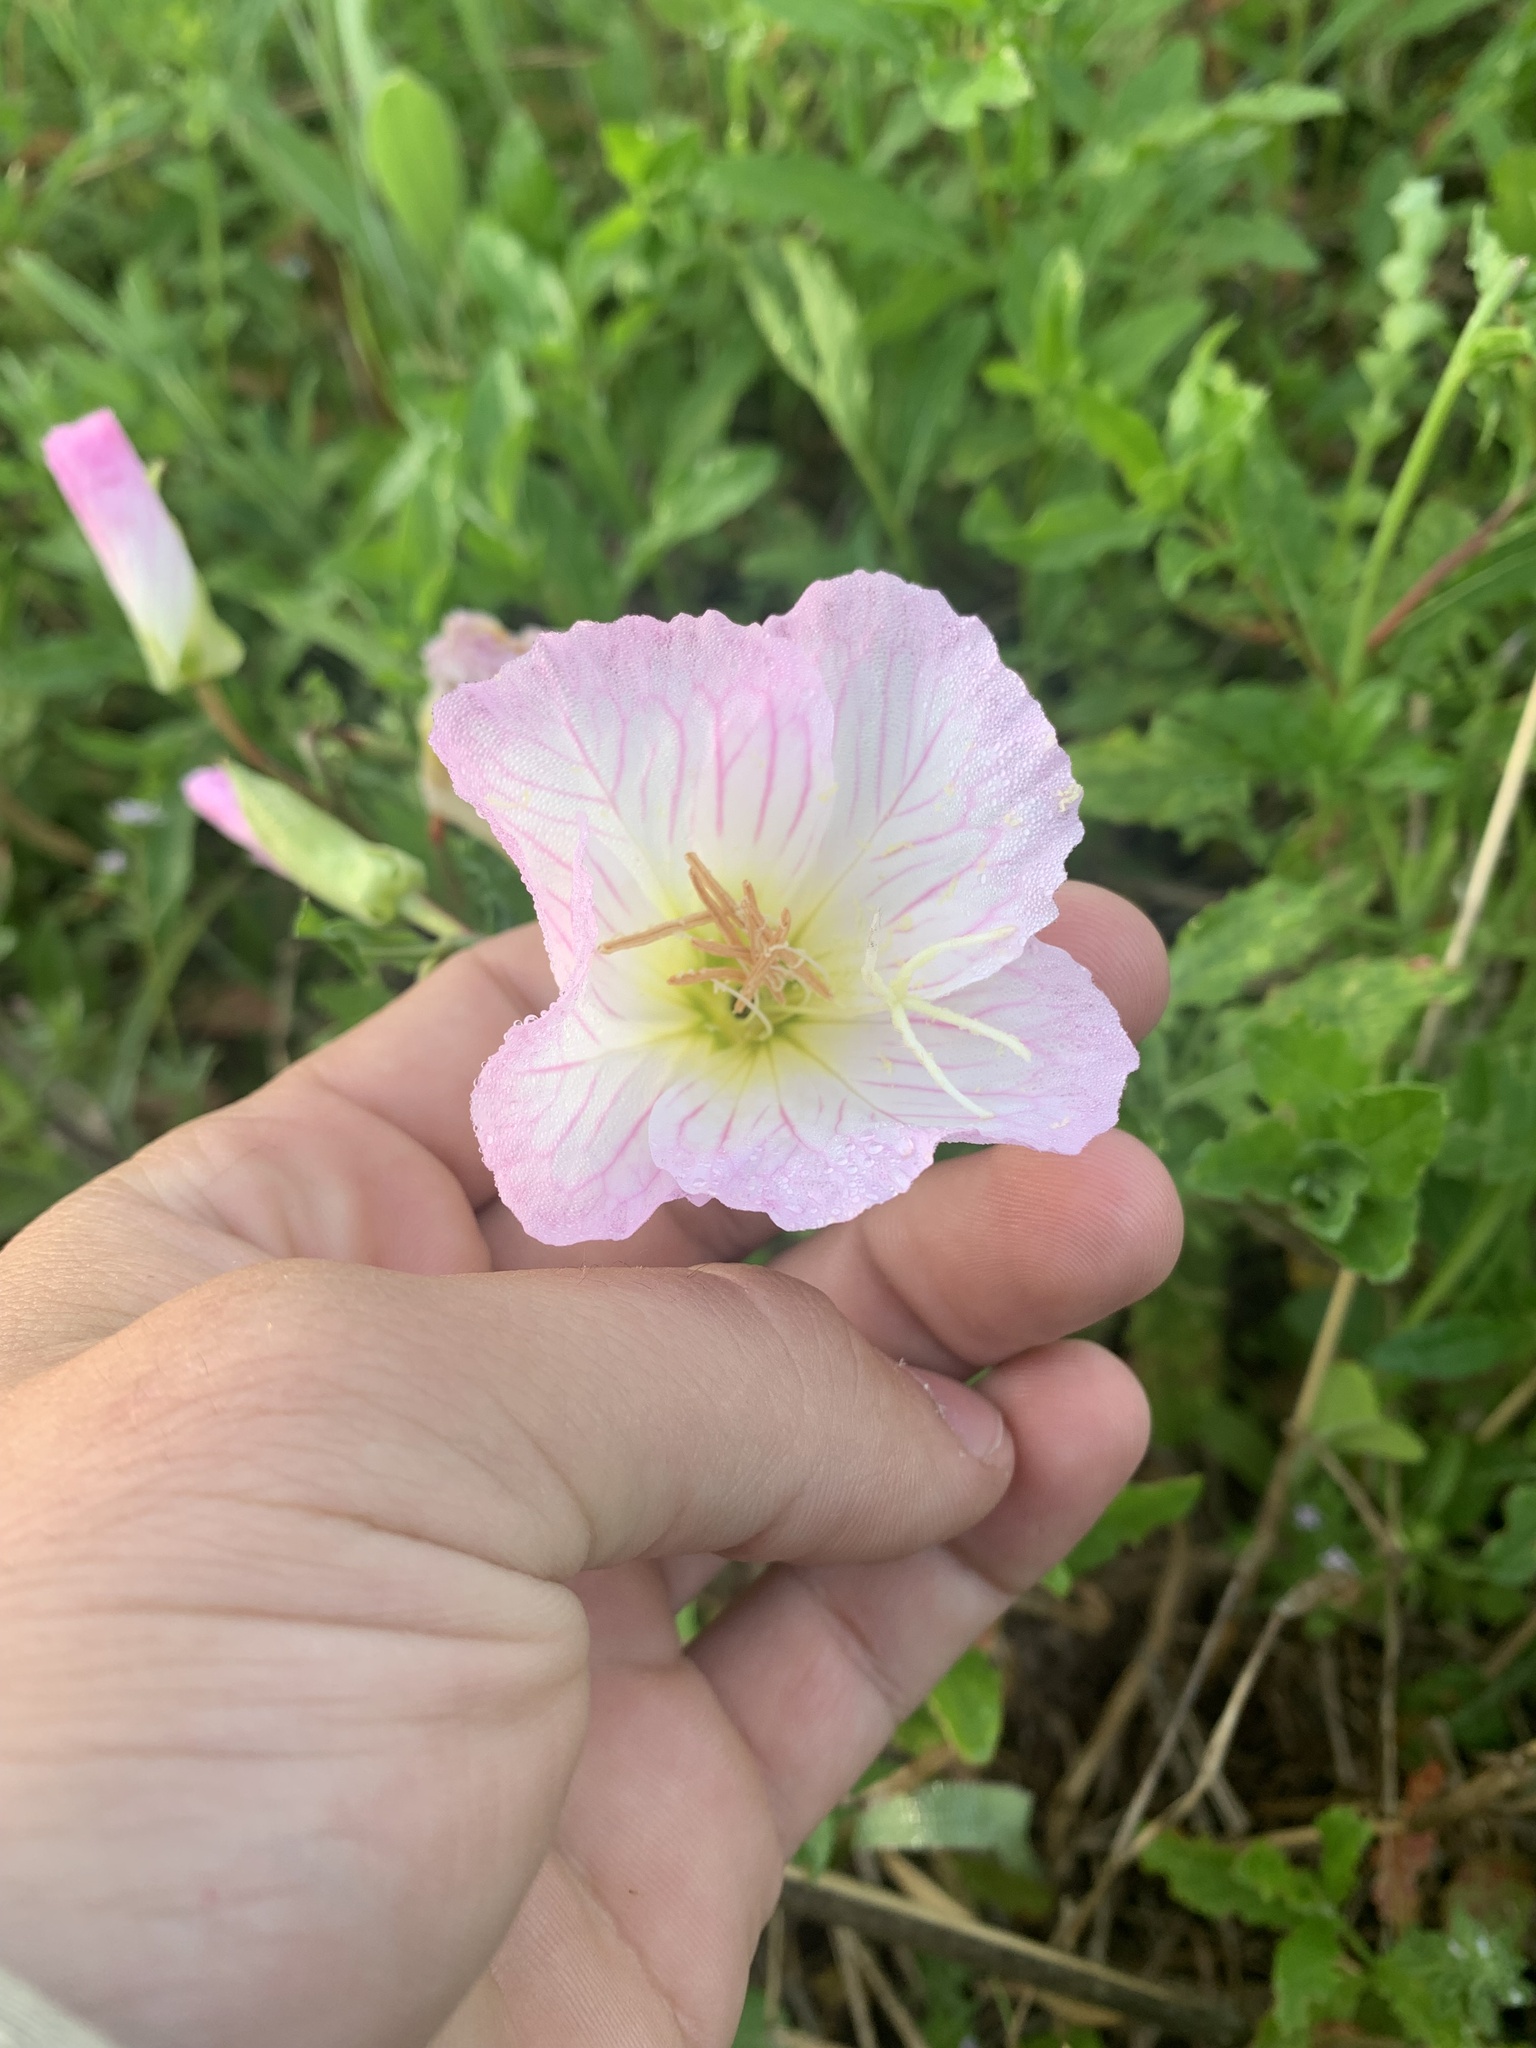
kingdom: Plantae
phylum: Tracheophyta
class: Magnoliopsida
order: Myrtales
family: Onagraceae
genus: Oenothera
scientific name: Oenothera speciosa
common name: White evening-primrose
